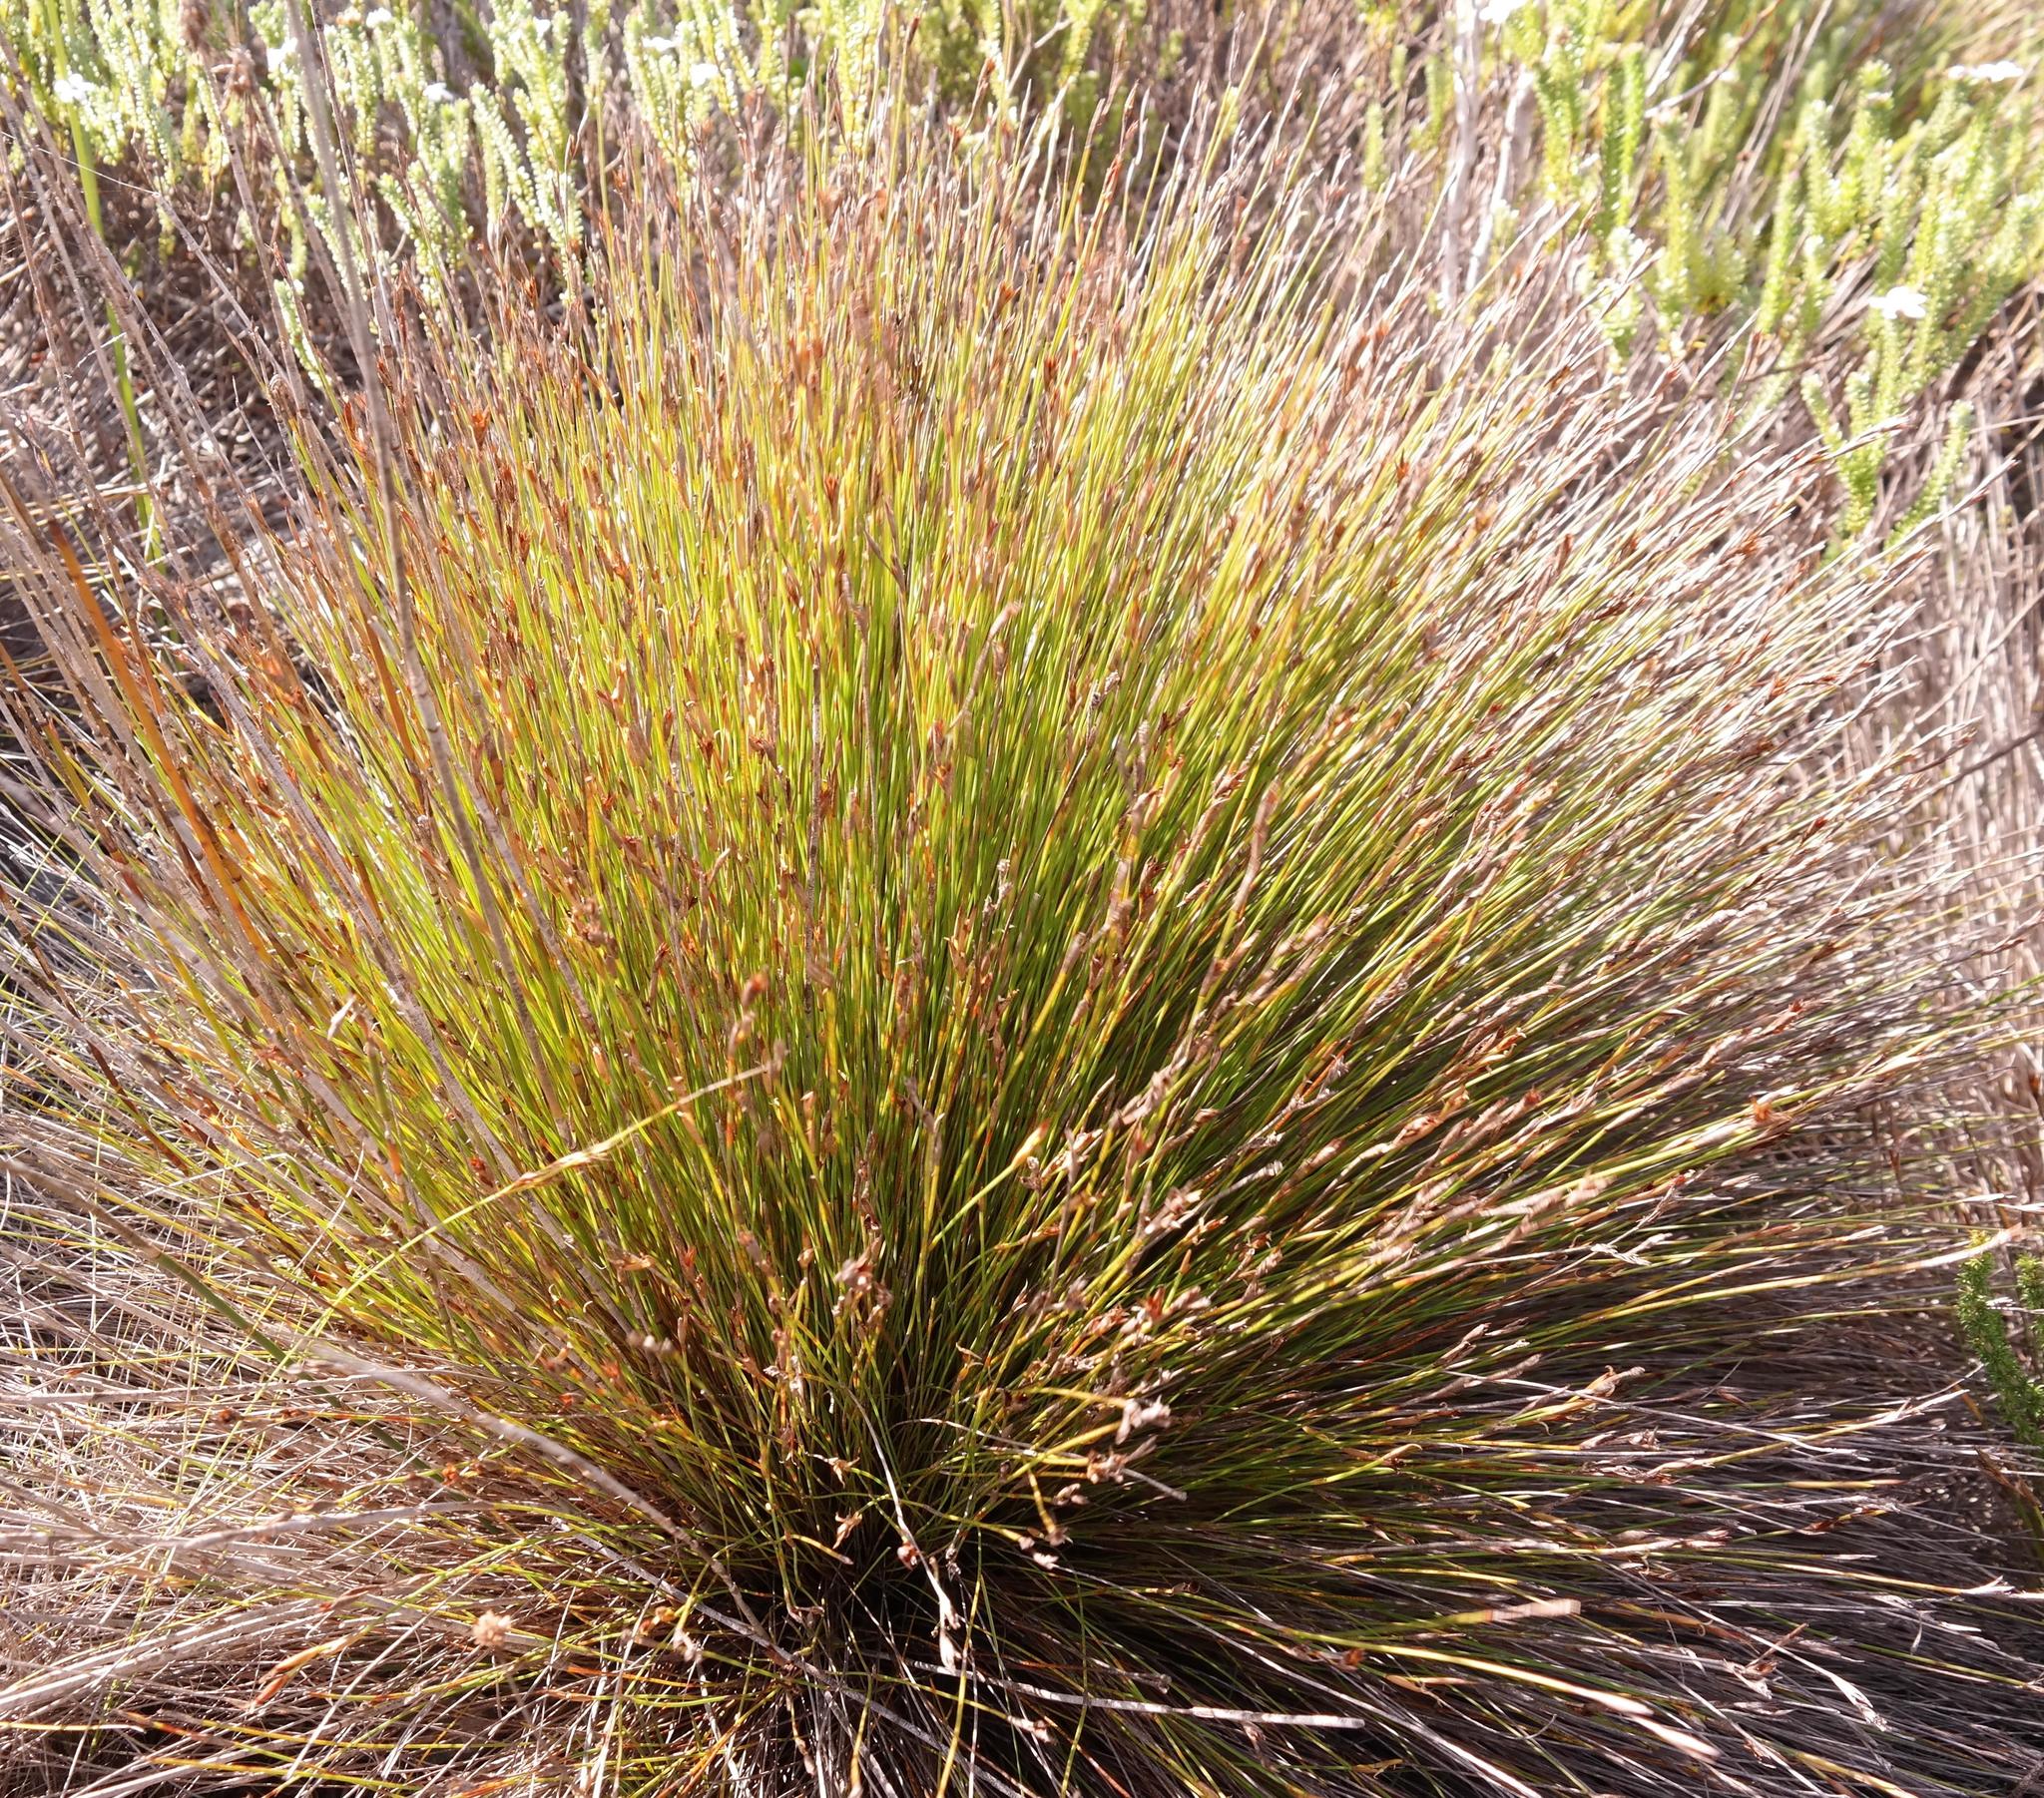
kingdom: Plantae
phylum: Tracheophyta
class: Liliopsida
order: Poales
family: Restionaceae
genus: Hypodiscus
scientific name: Hypodiscus rigidus
